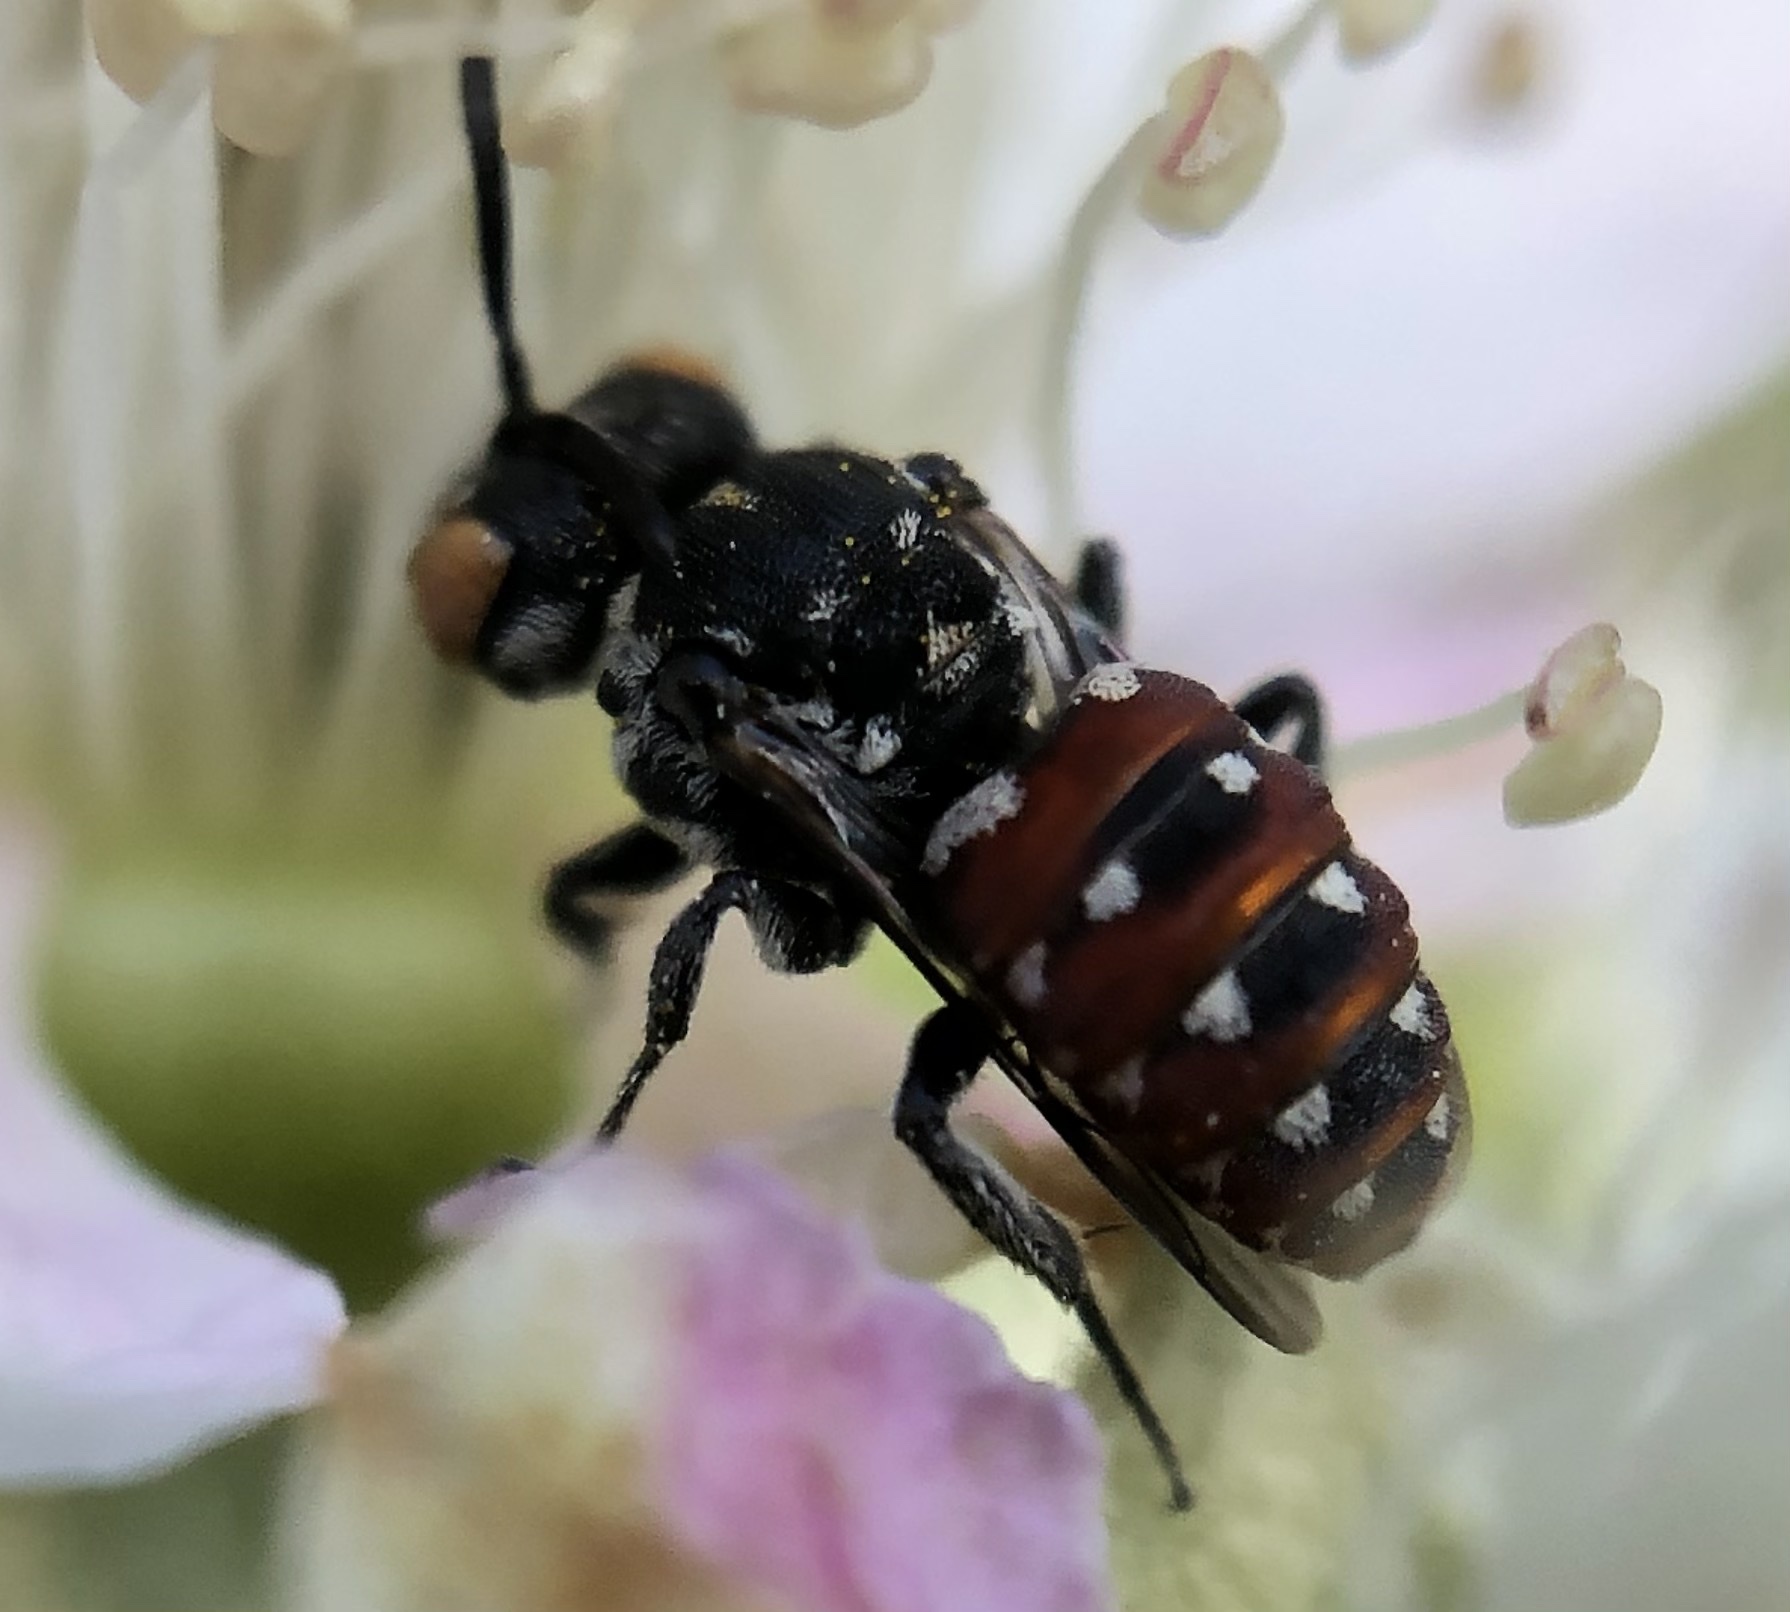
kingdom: Animalia
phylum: Arthropoda
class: Insecta
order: Hymenoptera
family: Apidae
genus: Holcopasites
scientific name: Holcopasites calliopsidis
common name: Calliopsis cuckoo nomad bee
